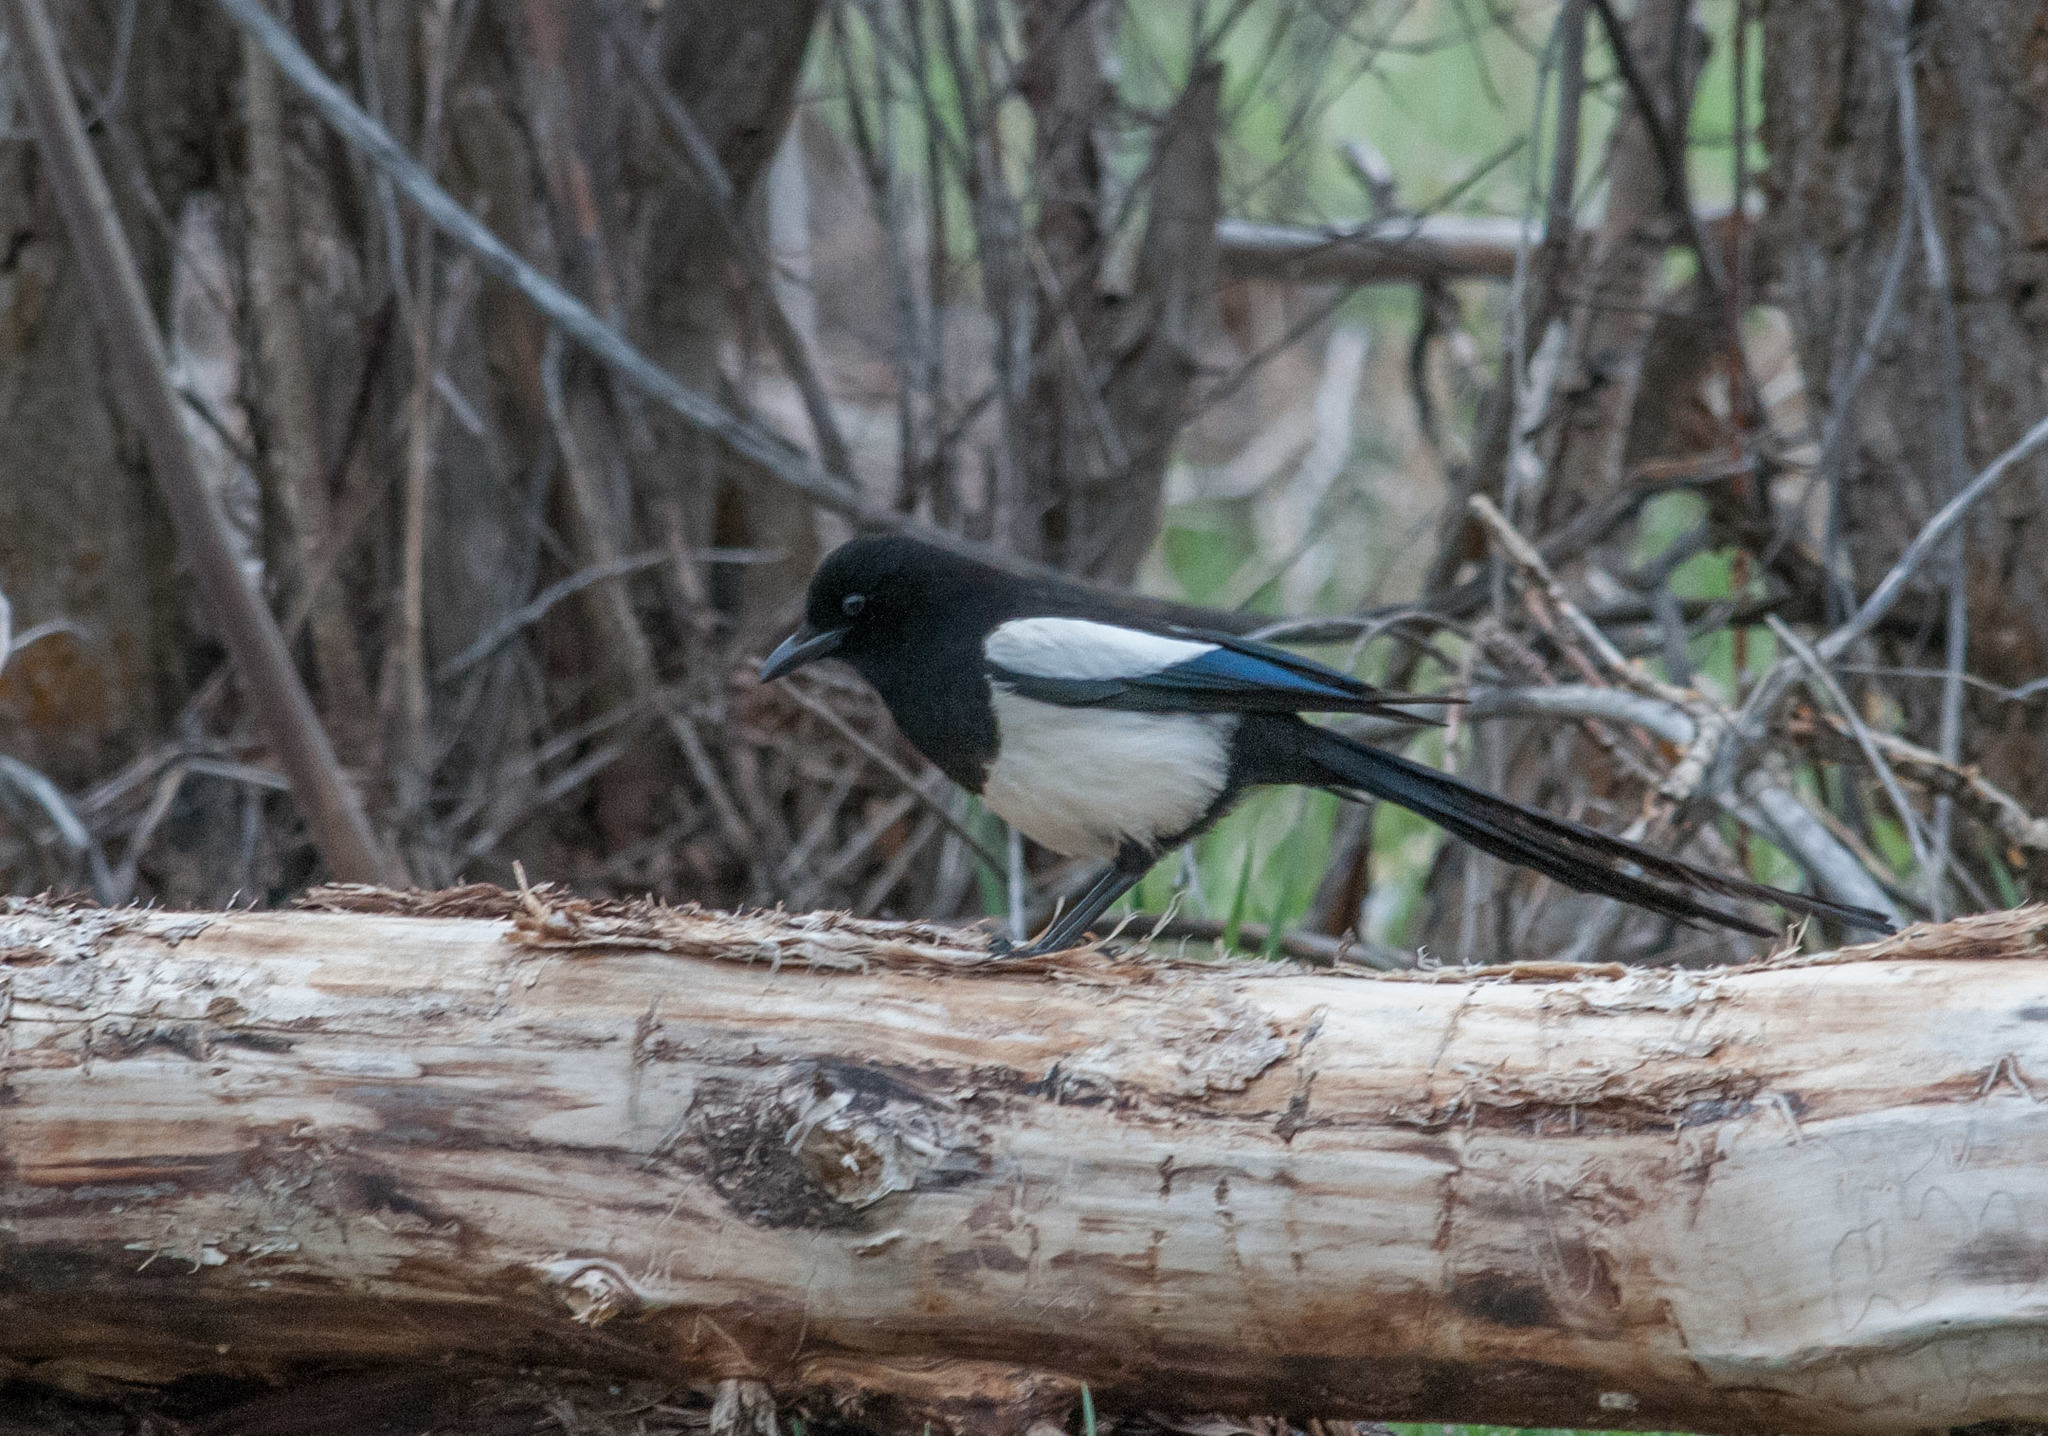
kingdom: Animalia
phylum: Chordata
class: Aves
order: Passeriformes
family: Corvidae
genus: Pica
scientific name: Pica hudsonia
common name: Black-billed magpie
